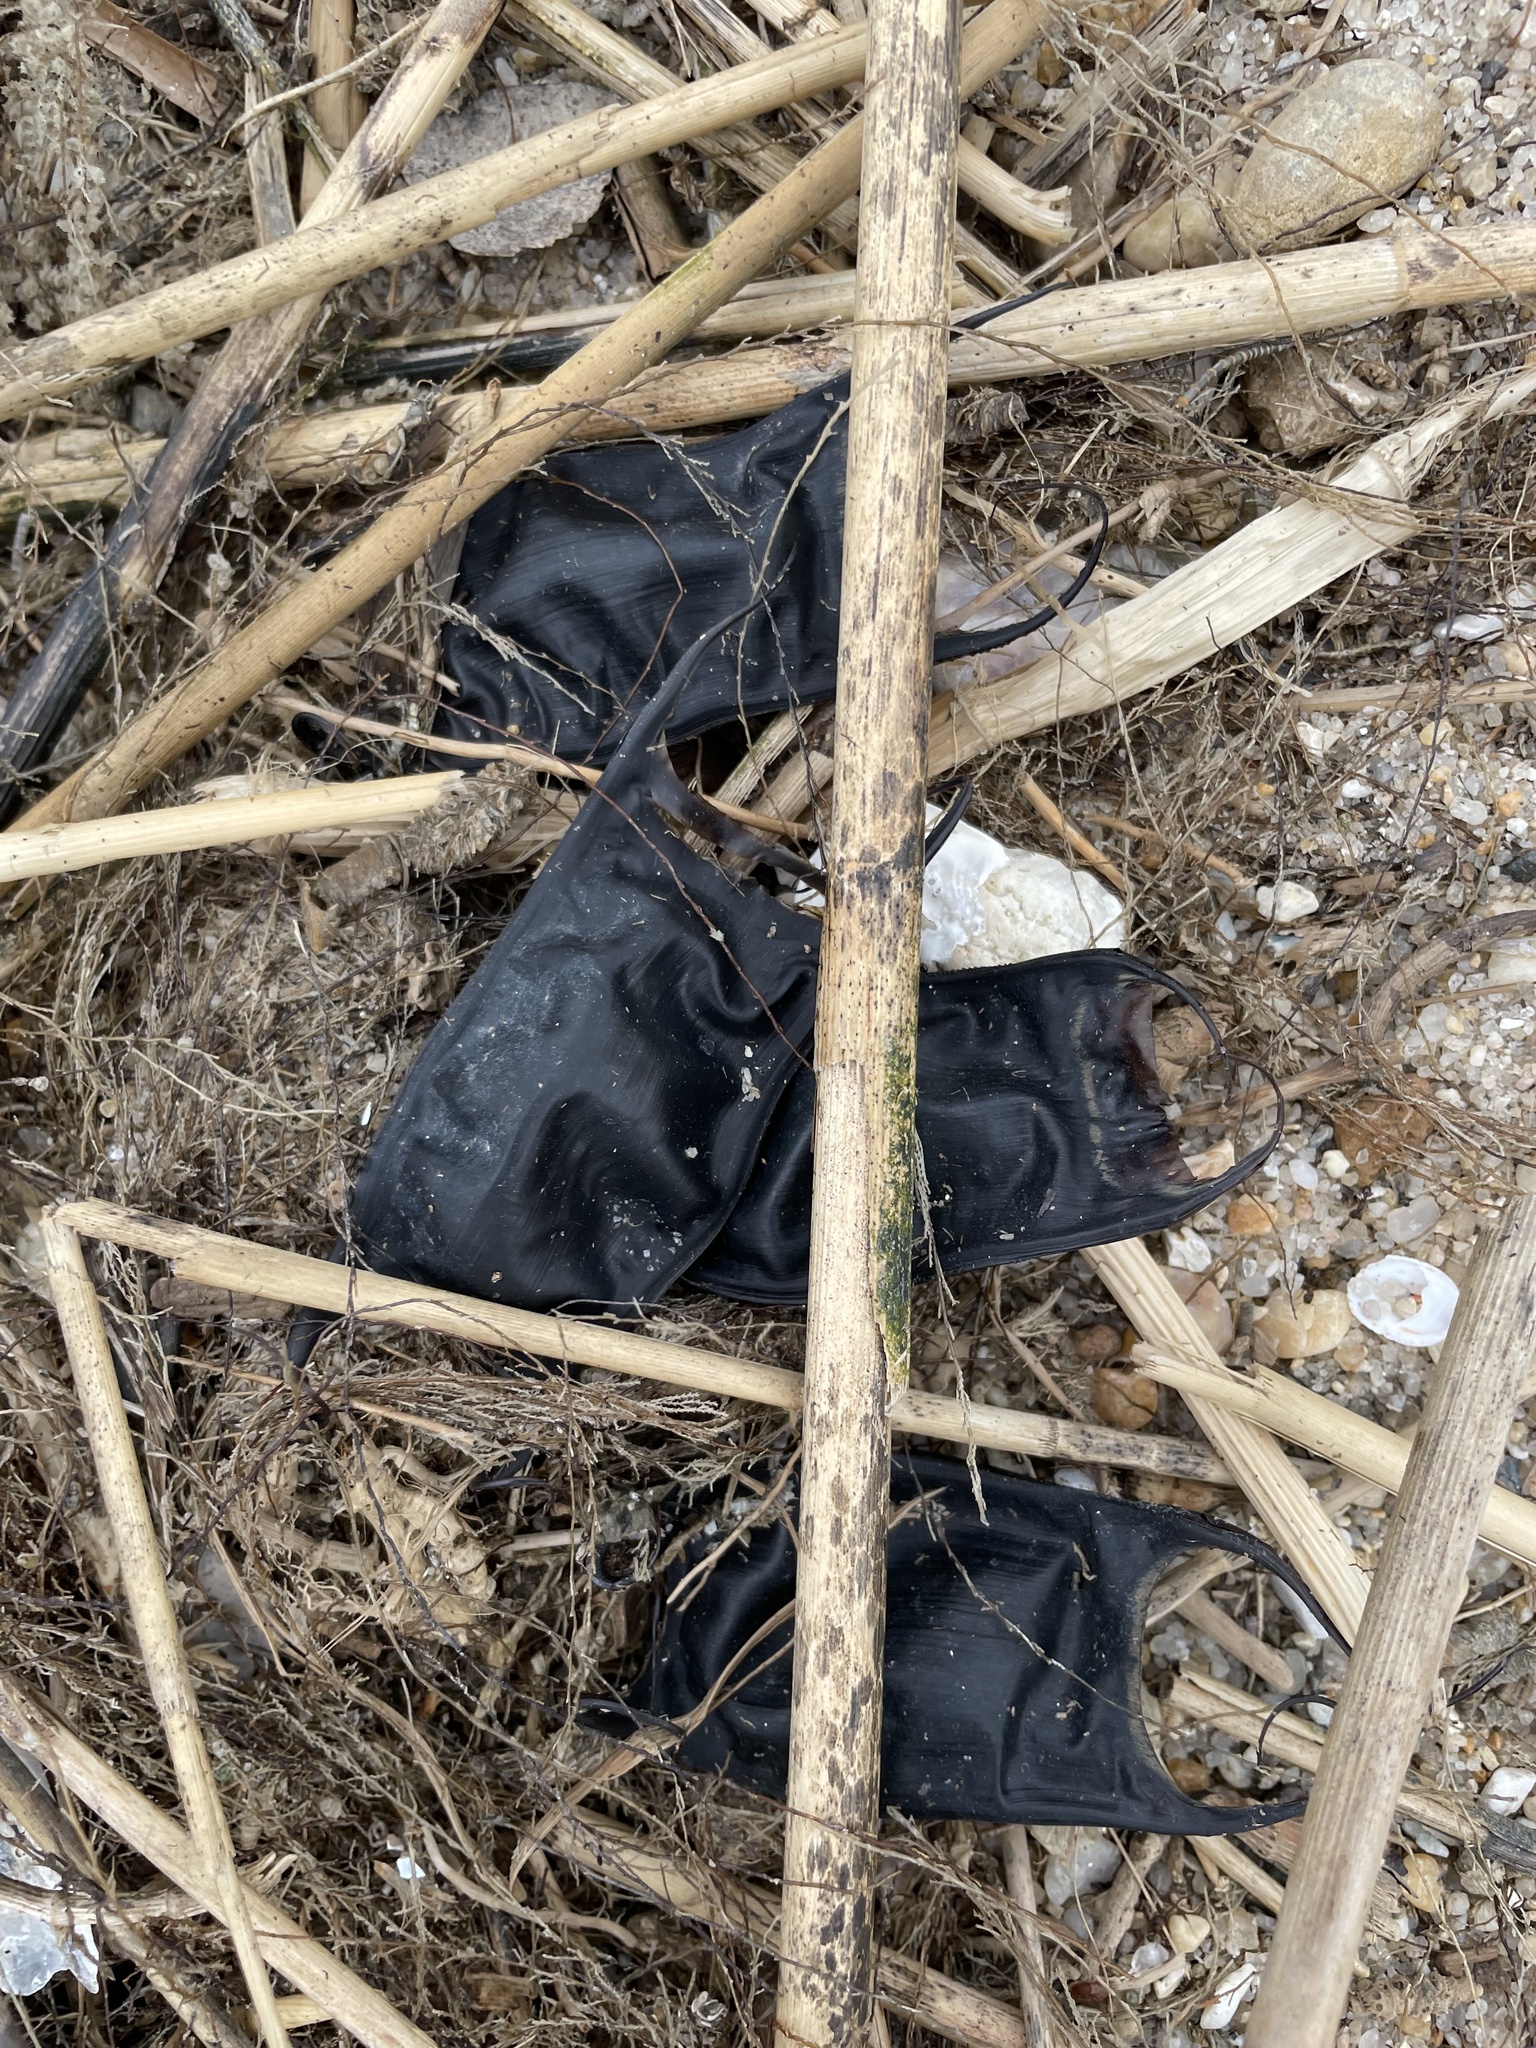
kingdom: Animalia
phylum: Chordata
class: Elasmobranchii
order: Rajiformes
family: Rajidae
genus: Raja
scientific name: Raja eglanteria
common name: Clearnose skate
